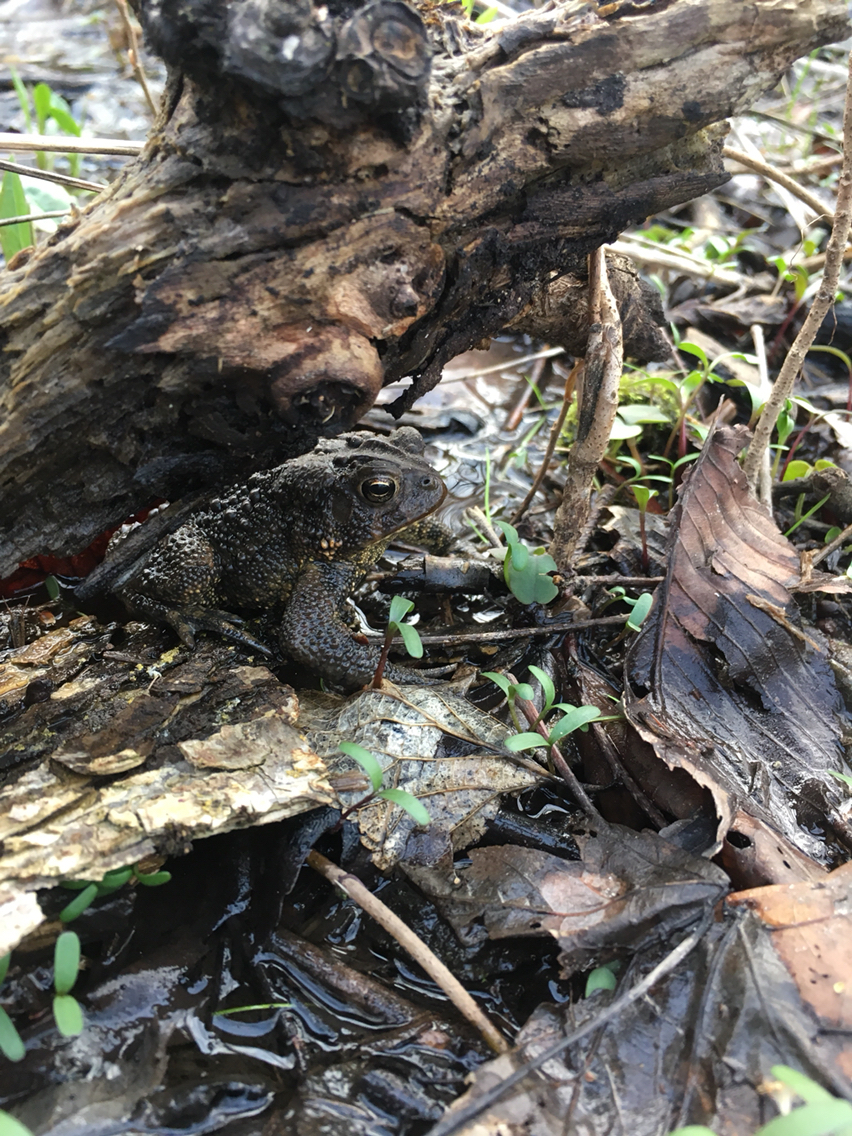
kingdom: Animalia
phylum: Chordata
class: Amphibia
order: Anura
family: Bufonidae
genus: Anaxyrus
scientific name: Anaxyrus americanus
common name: American toad
